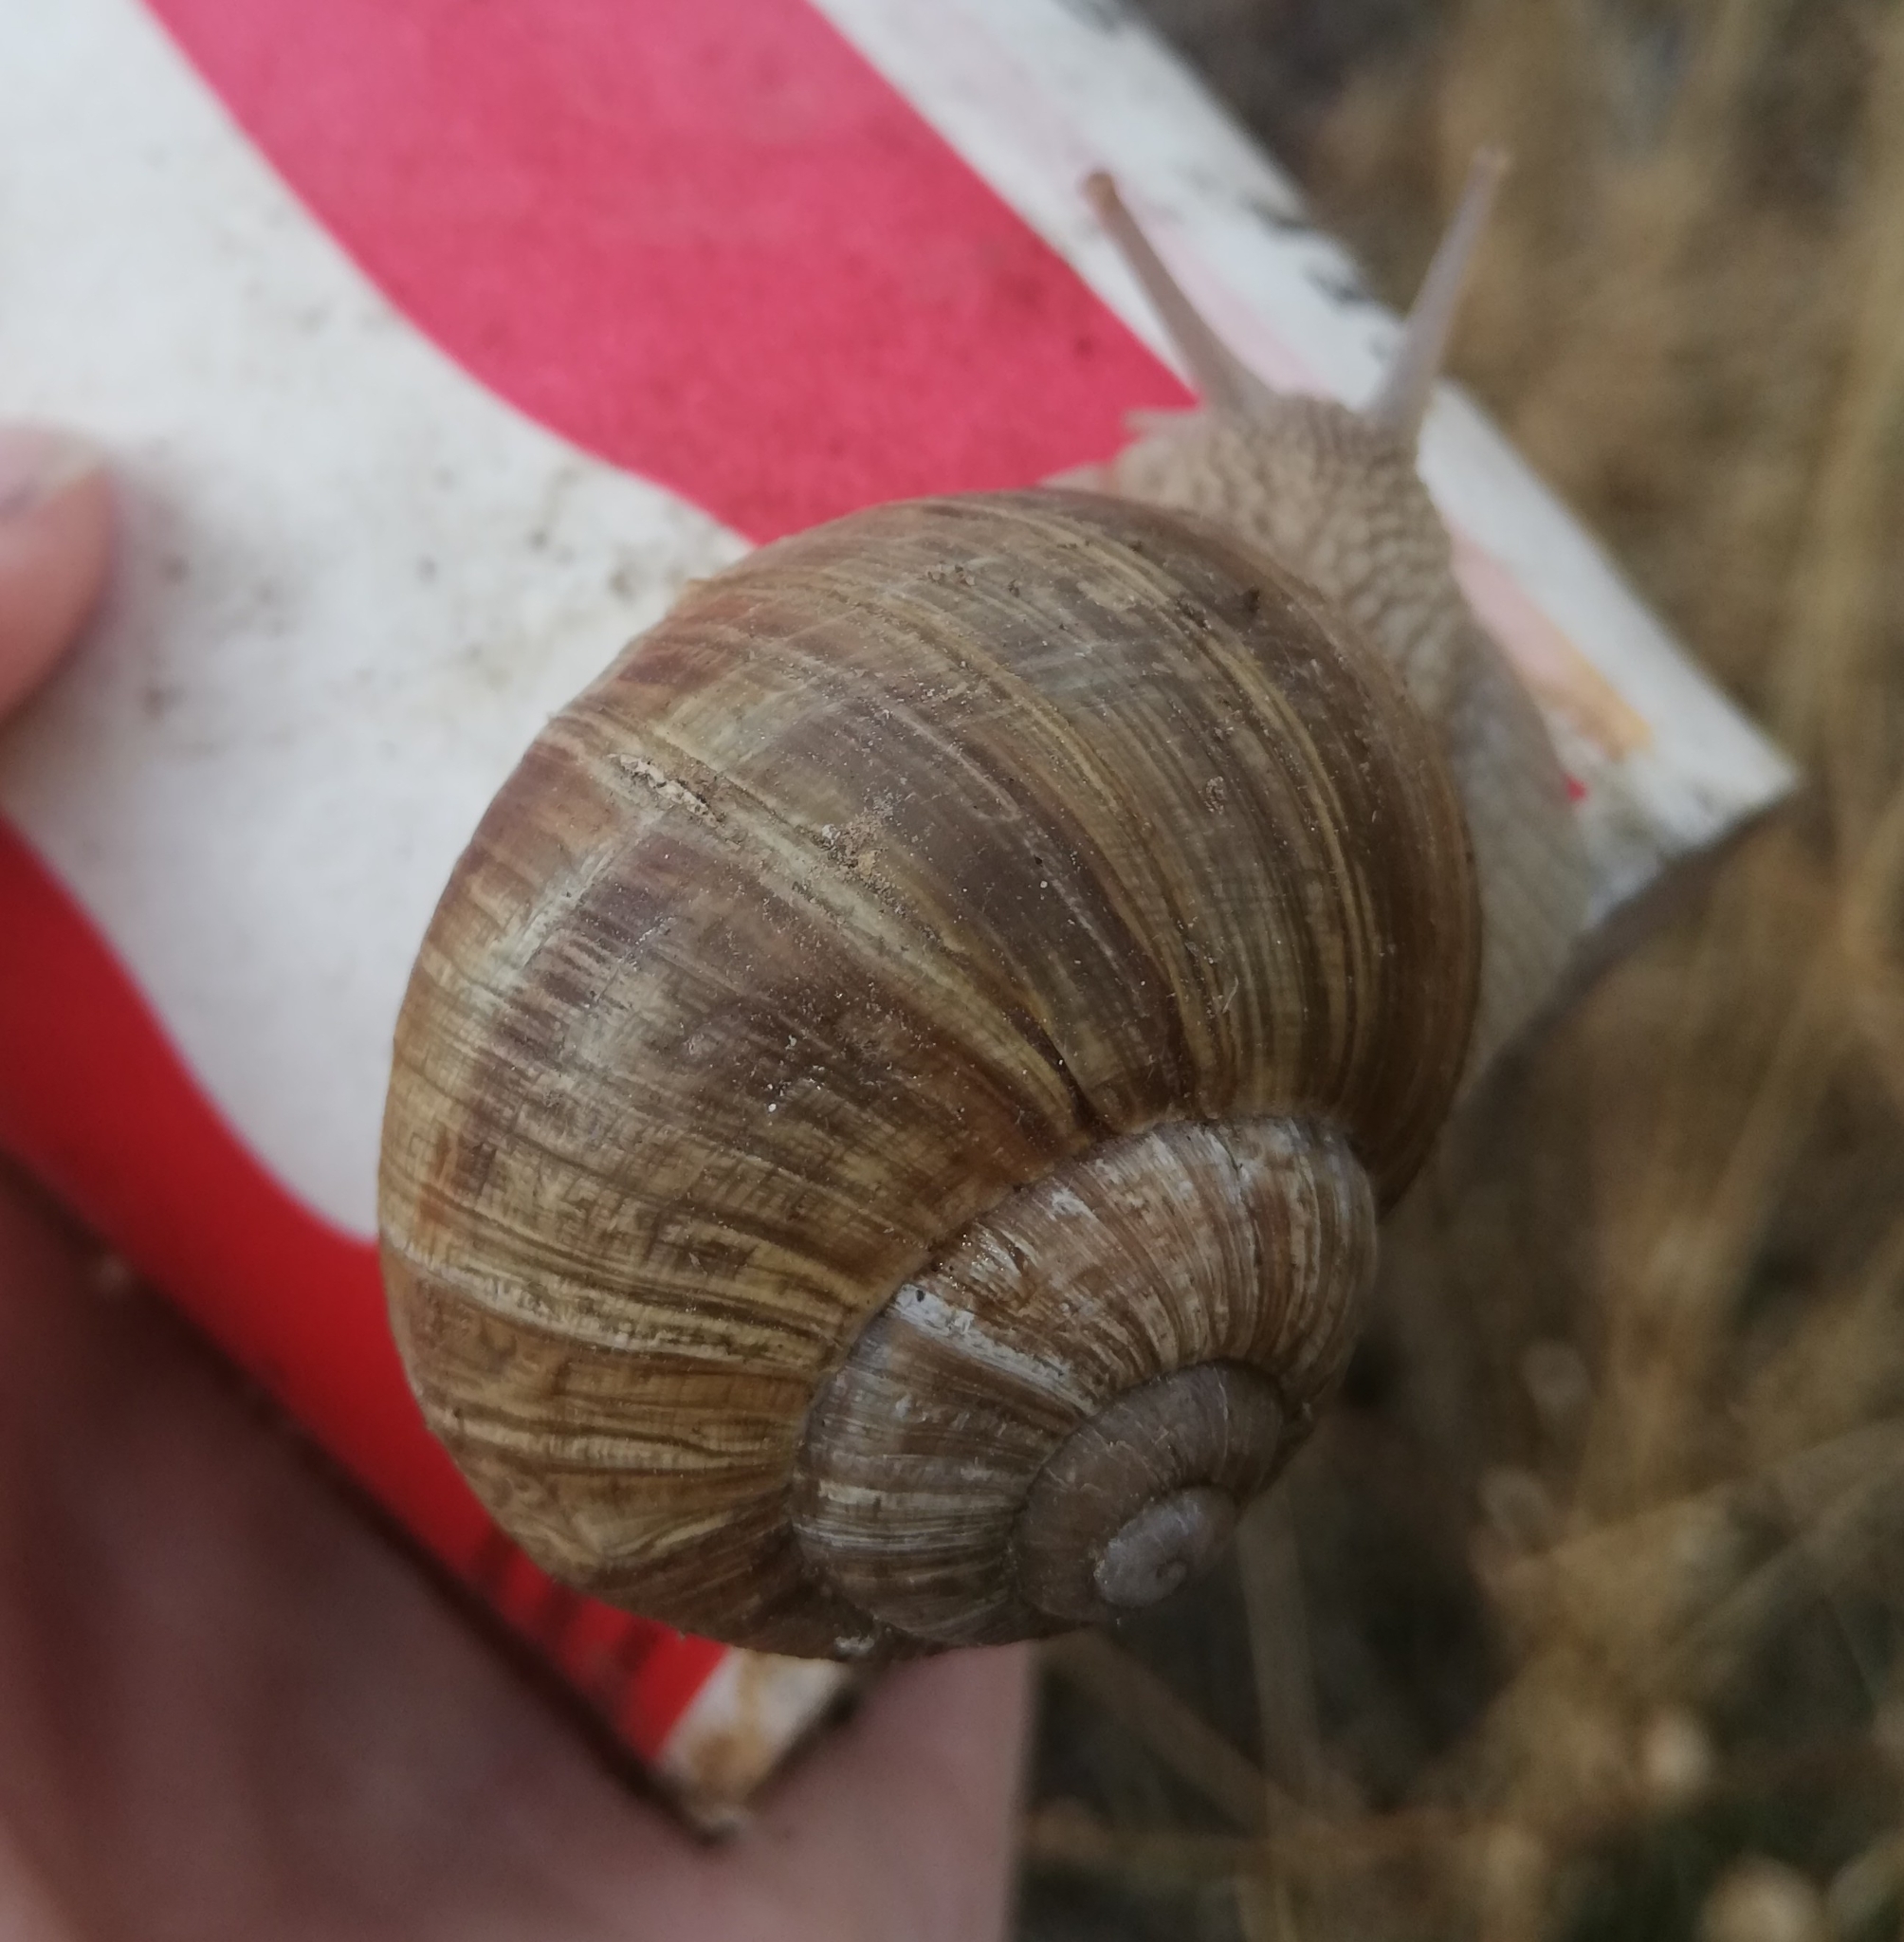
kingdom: Animalia
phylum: Mollusca
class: Gastropoda
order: Stylommatophora
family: Helicidae
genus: Helix
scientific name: Helix pomatia
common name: Roman snail
